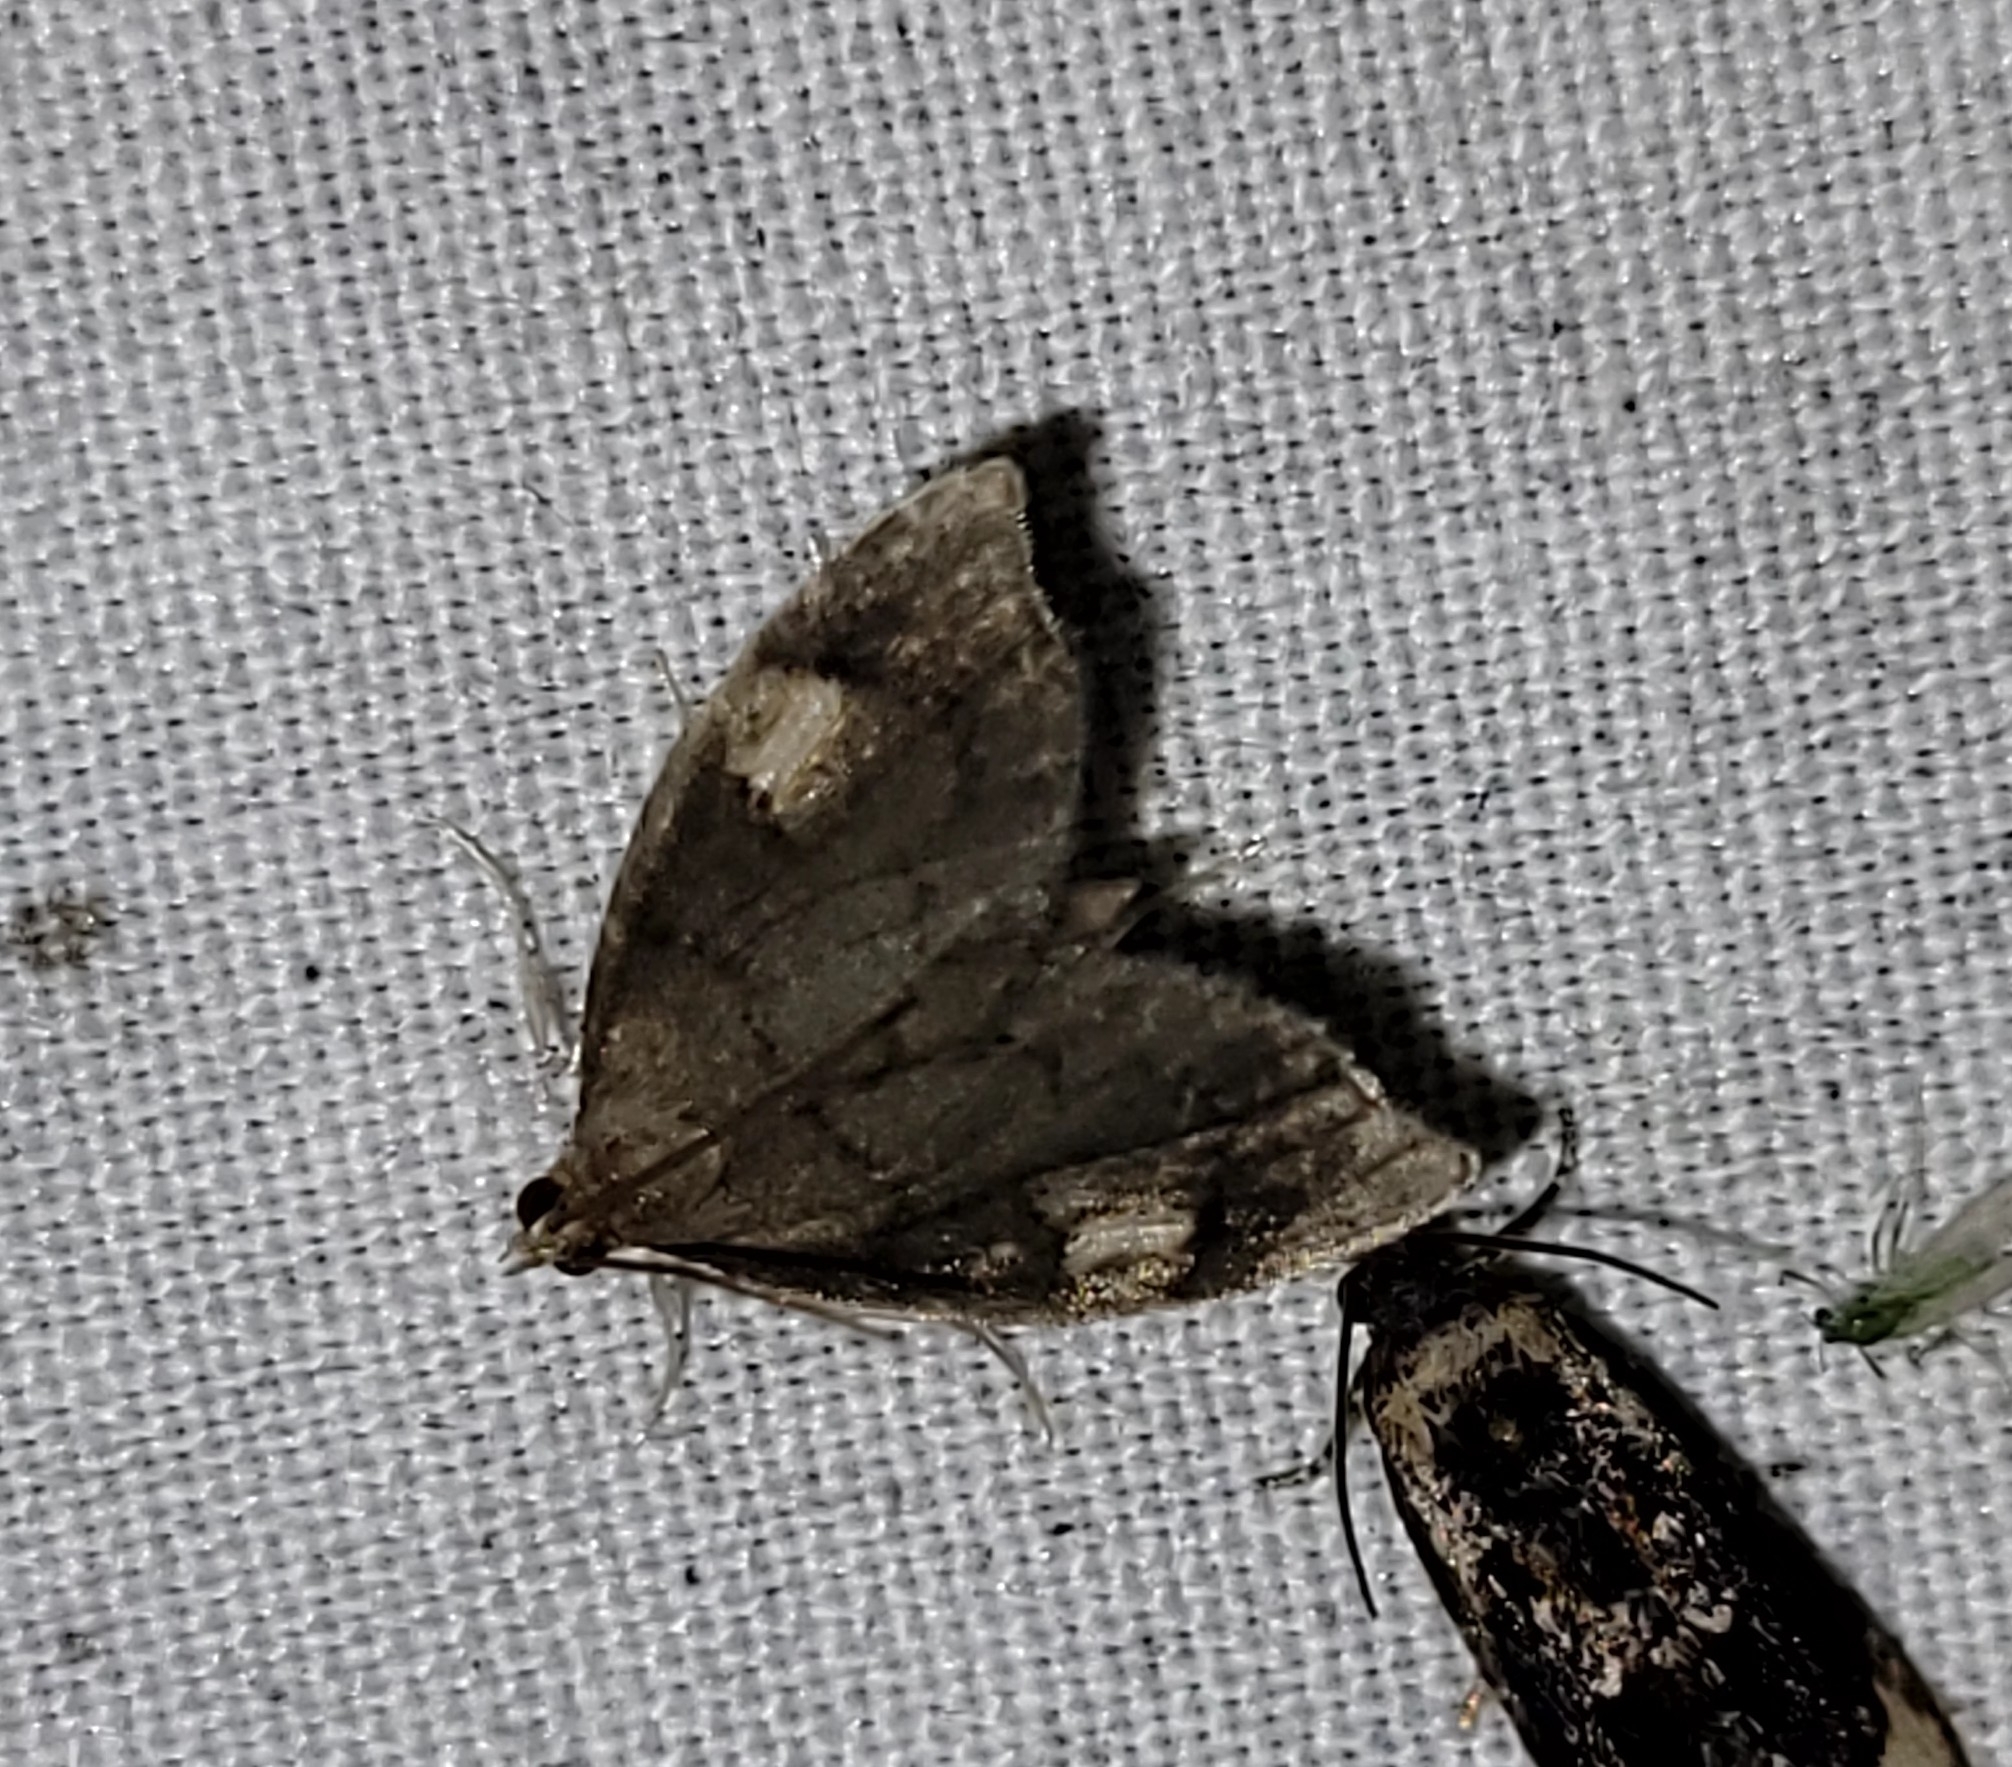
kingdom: Animalia
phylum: Arthropoda
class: Insecta
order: Lepidoptera
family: Crambidae
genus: Perispasta
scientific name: Perispasta caeculalis
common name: Titian peale's moth
